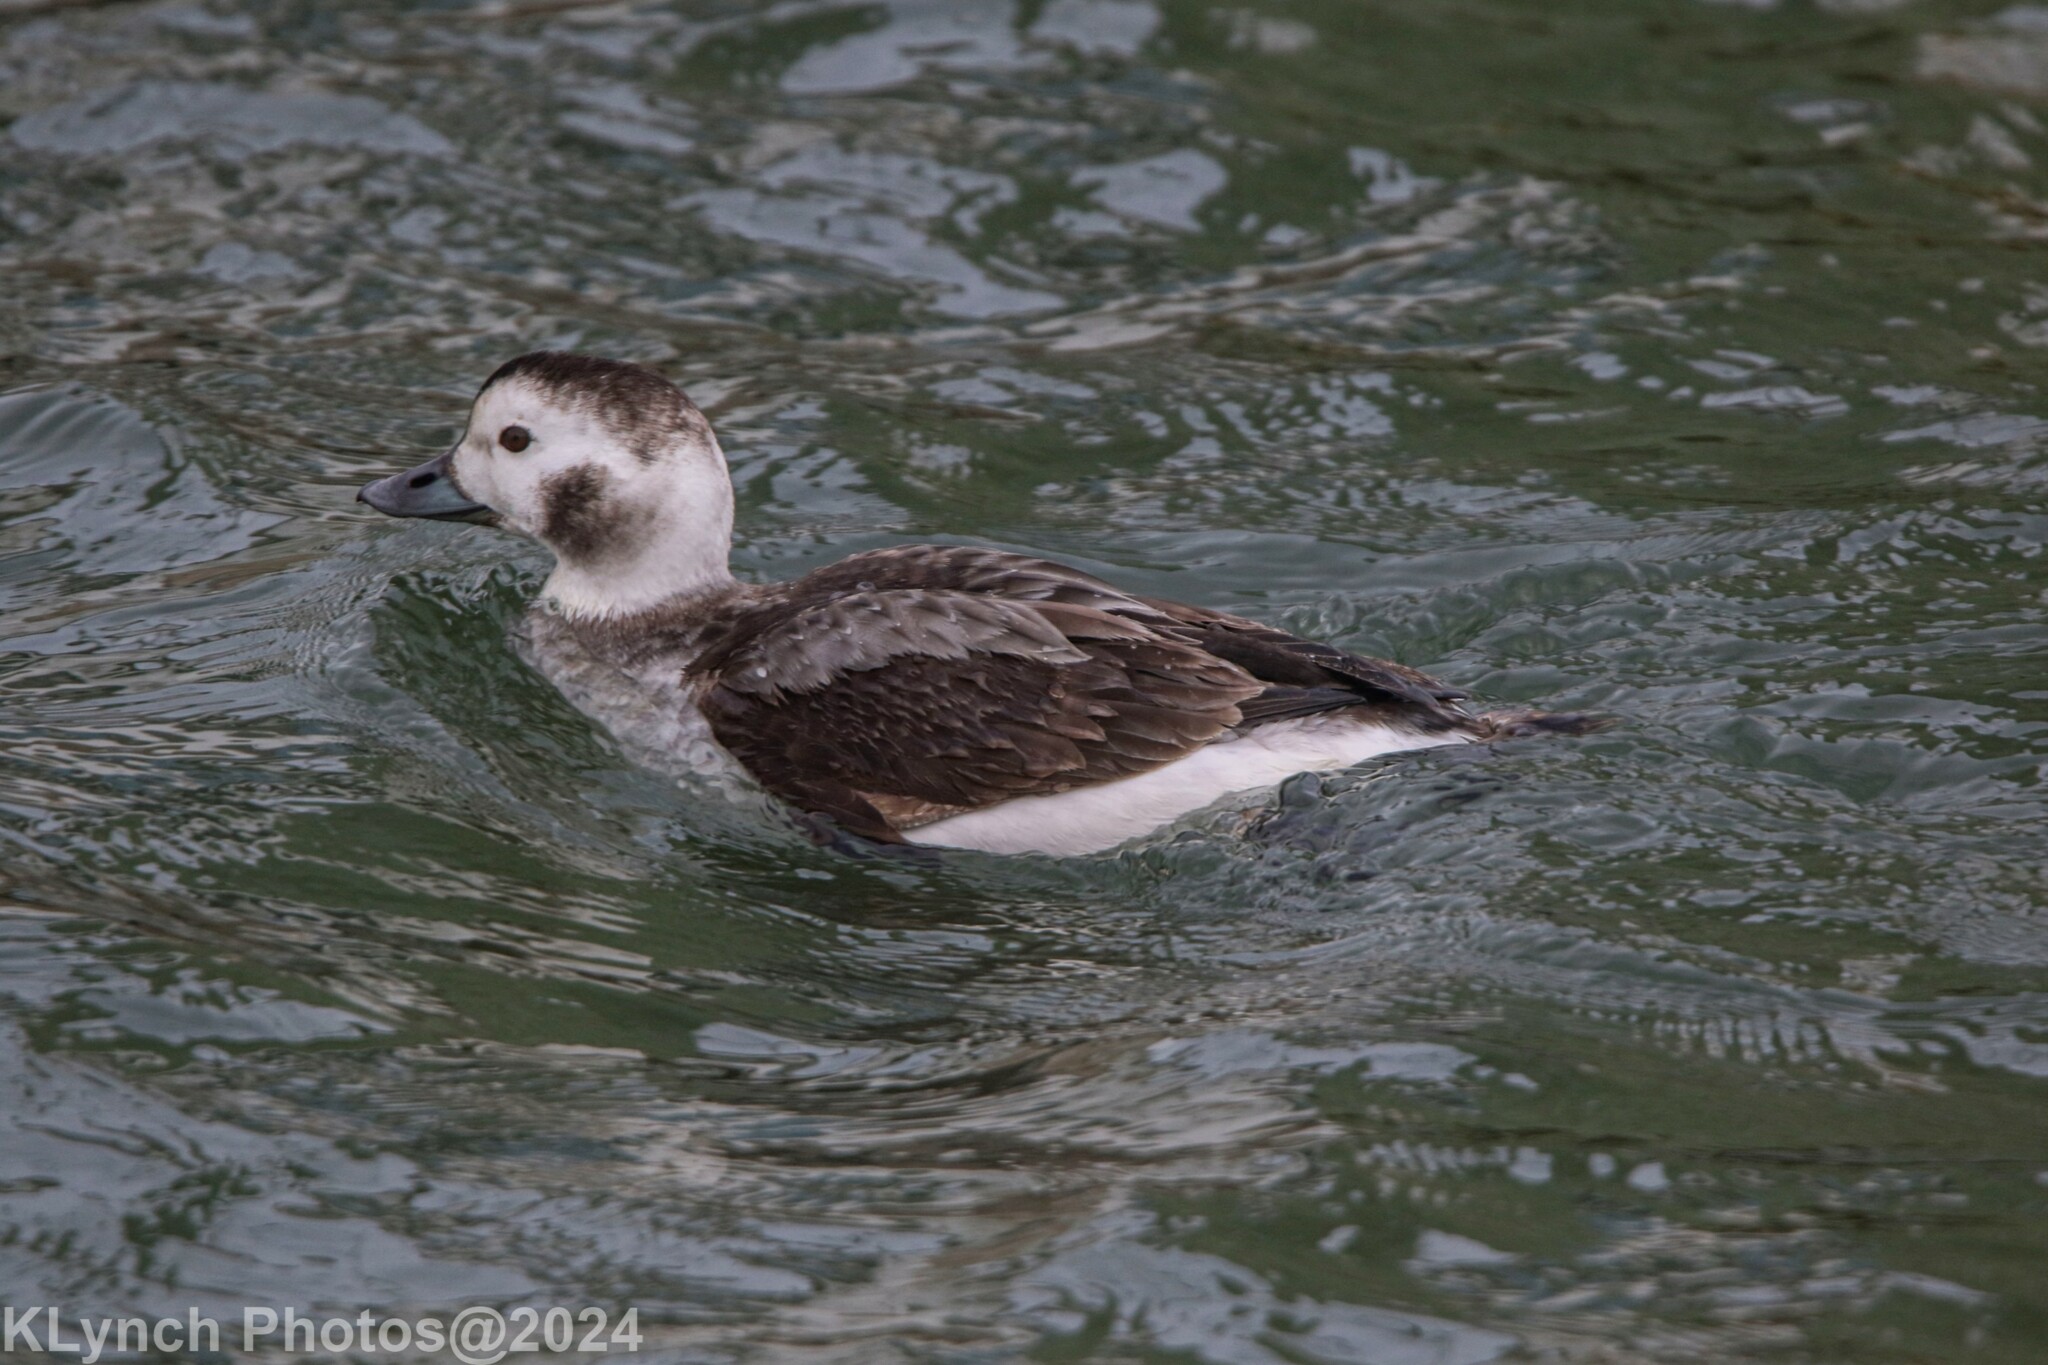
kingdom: Animalia
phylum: Chordata
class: Aves
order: Anseriformes
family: Anatidae
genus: Clangula
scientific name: Clangula hyemalis
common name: Long-tailed duck
